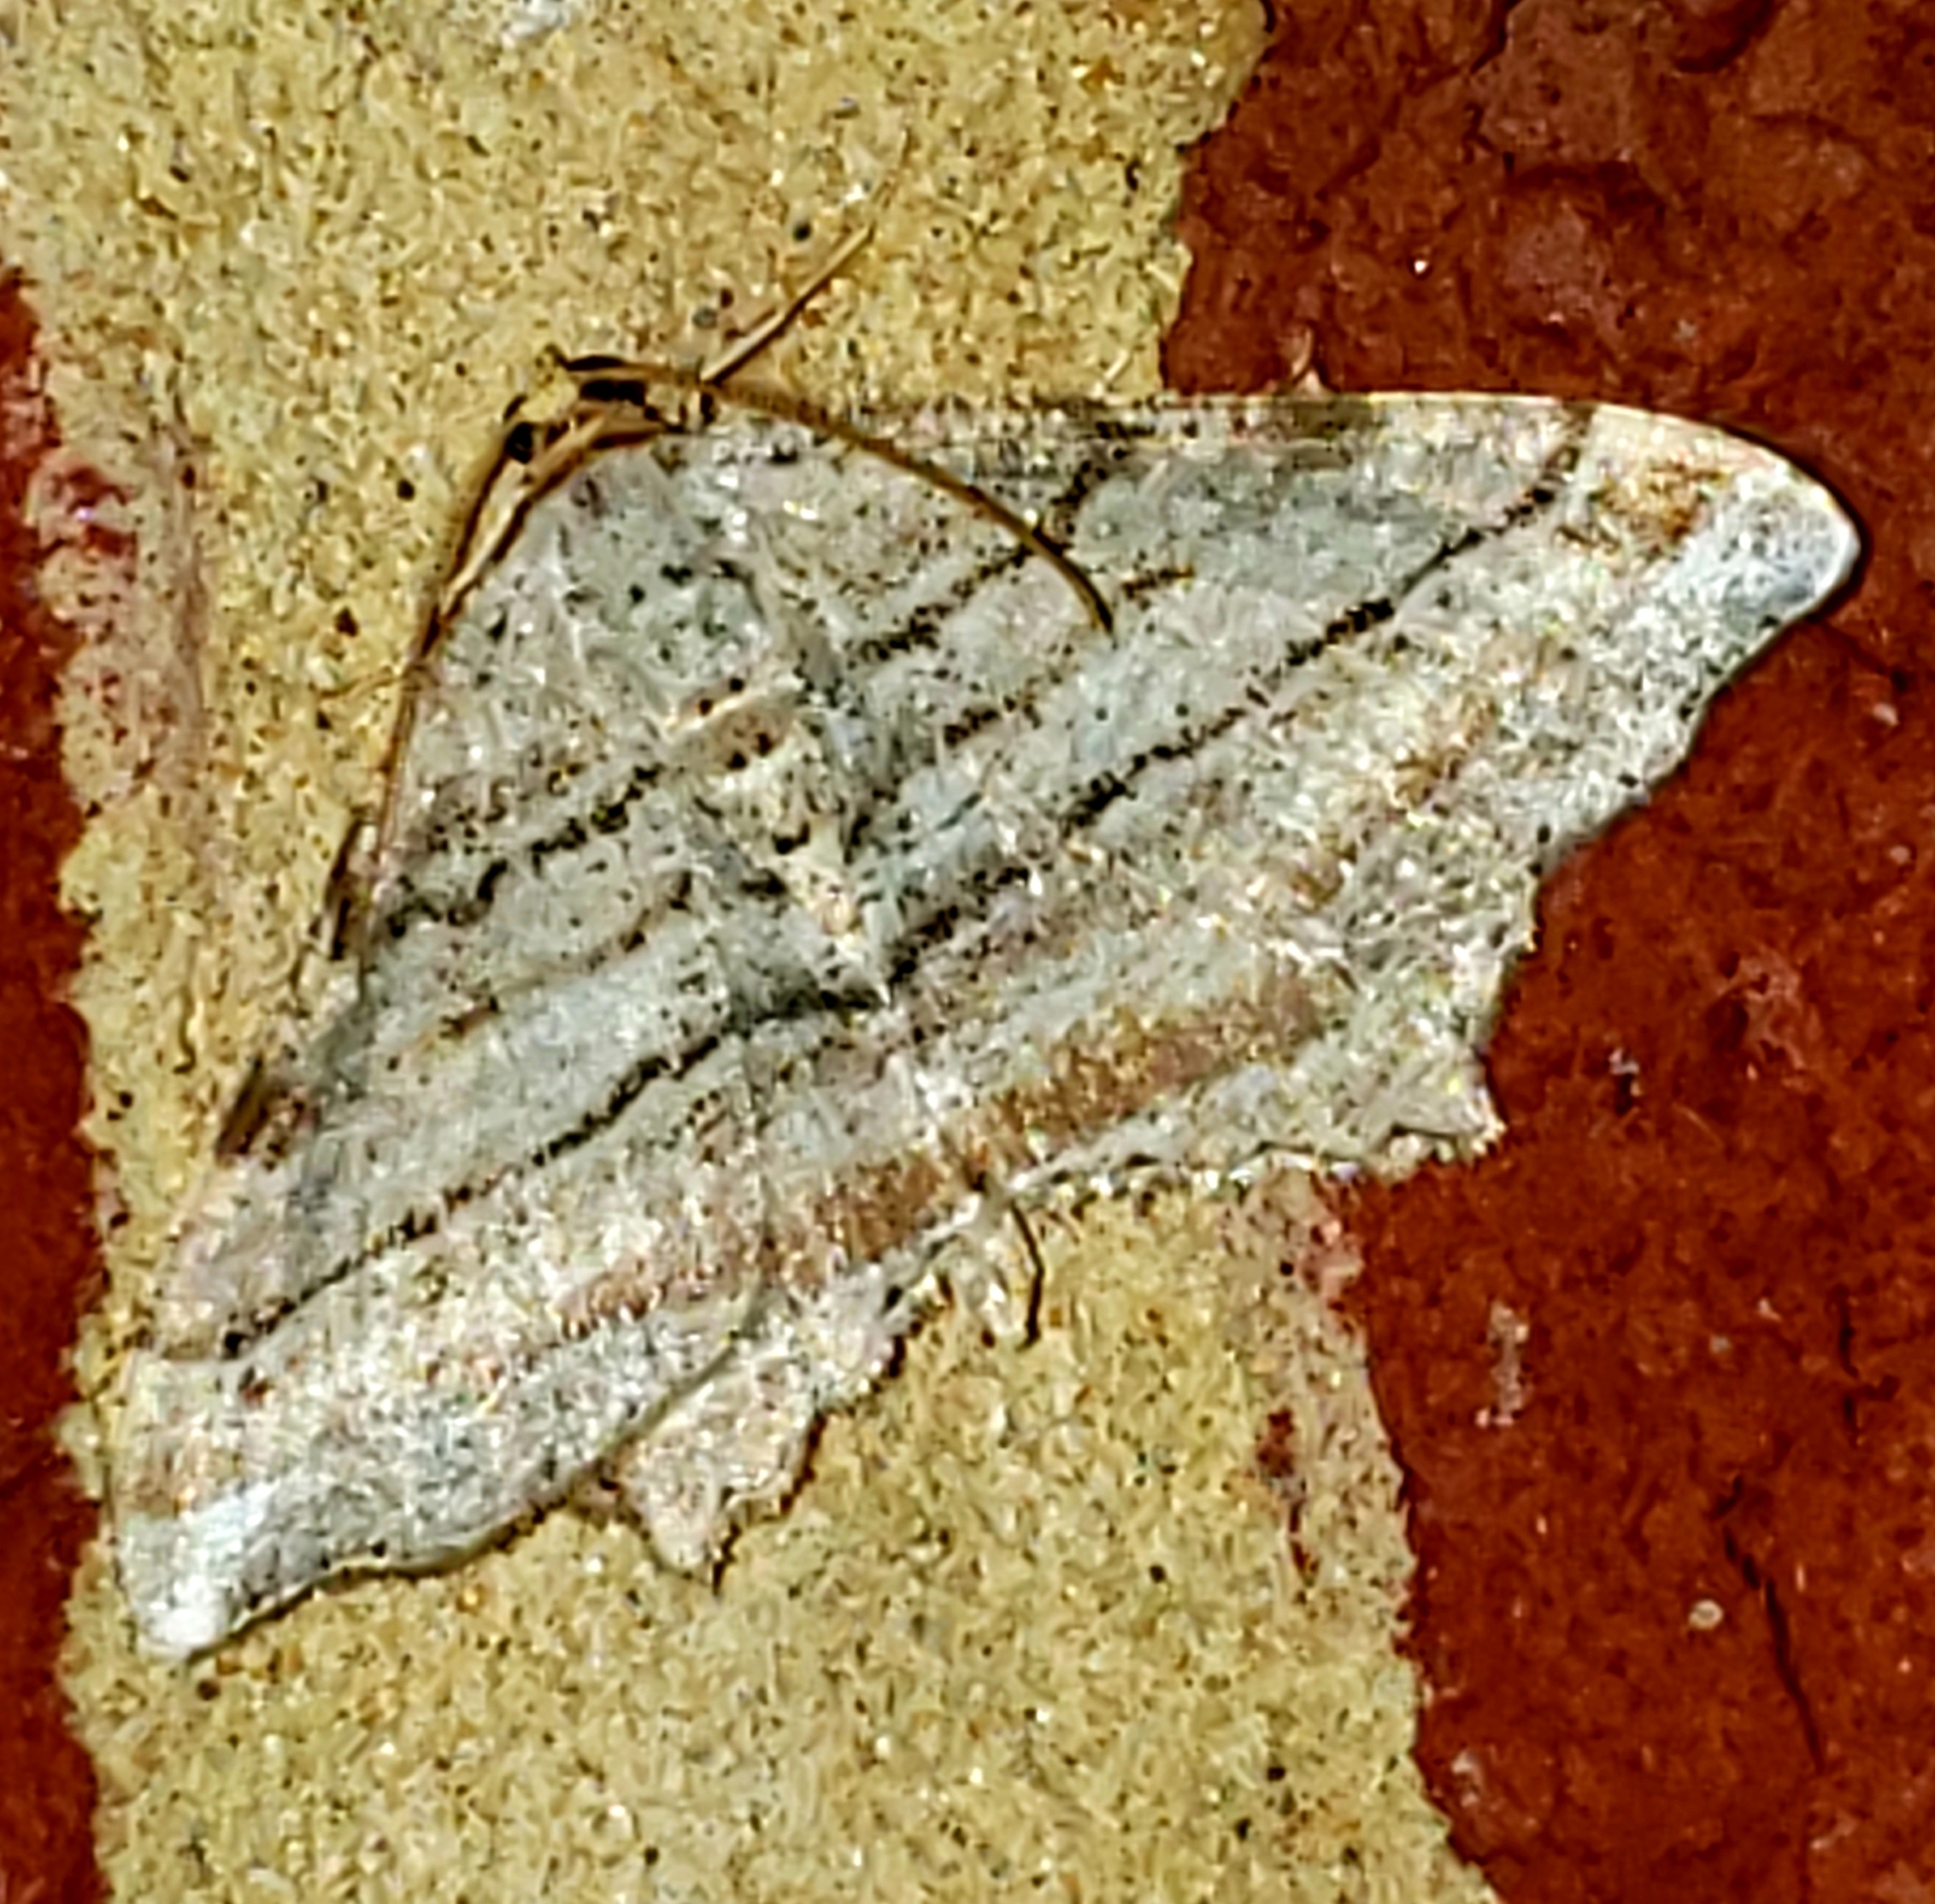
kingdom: Animalia
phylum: Arthropoda
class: Insecta
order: Lepidoptera
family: Geometridae
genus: Macaria
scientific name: Macaria multilineata
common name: Many-lined angle
